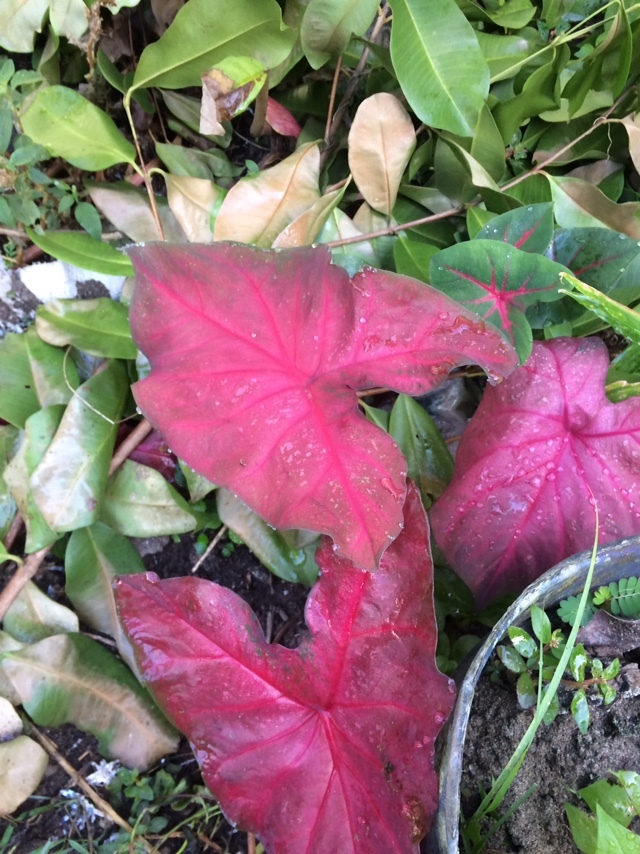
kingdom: Plantae
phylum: Tracheophyta
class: Liliopsida
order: Alismatales
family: Araceae
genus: Caladium
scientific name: Caladium bicolor
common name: Artist's pallet
